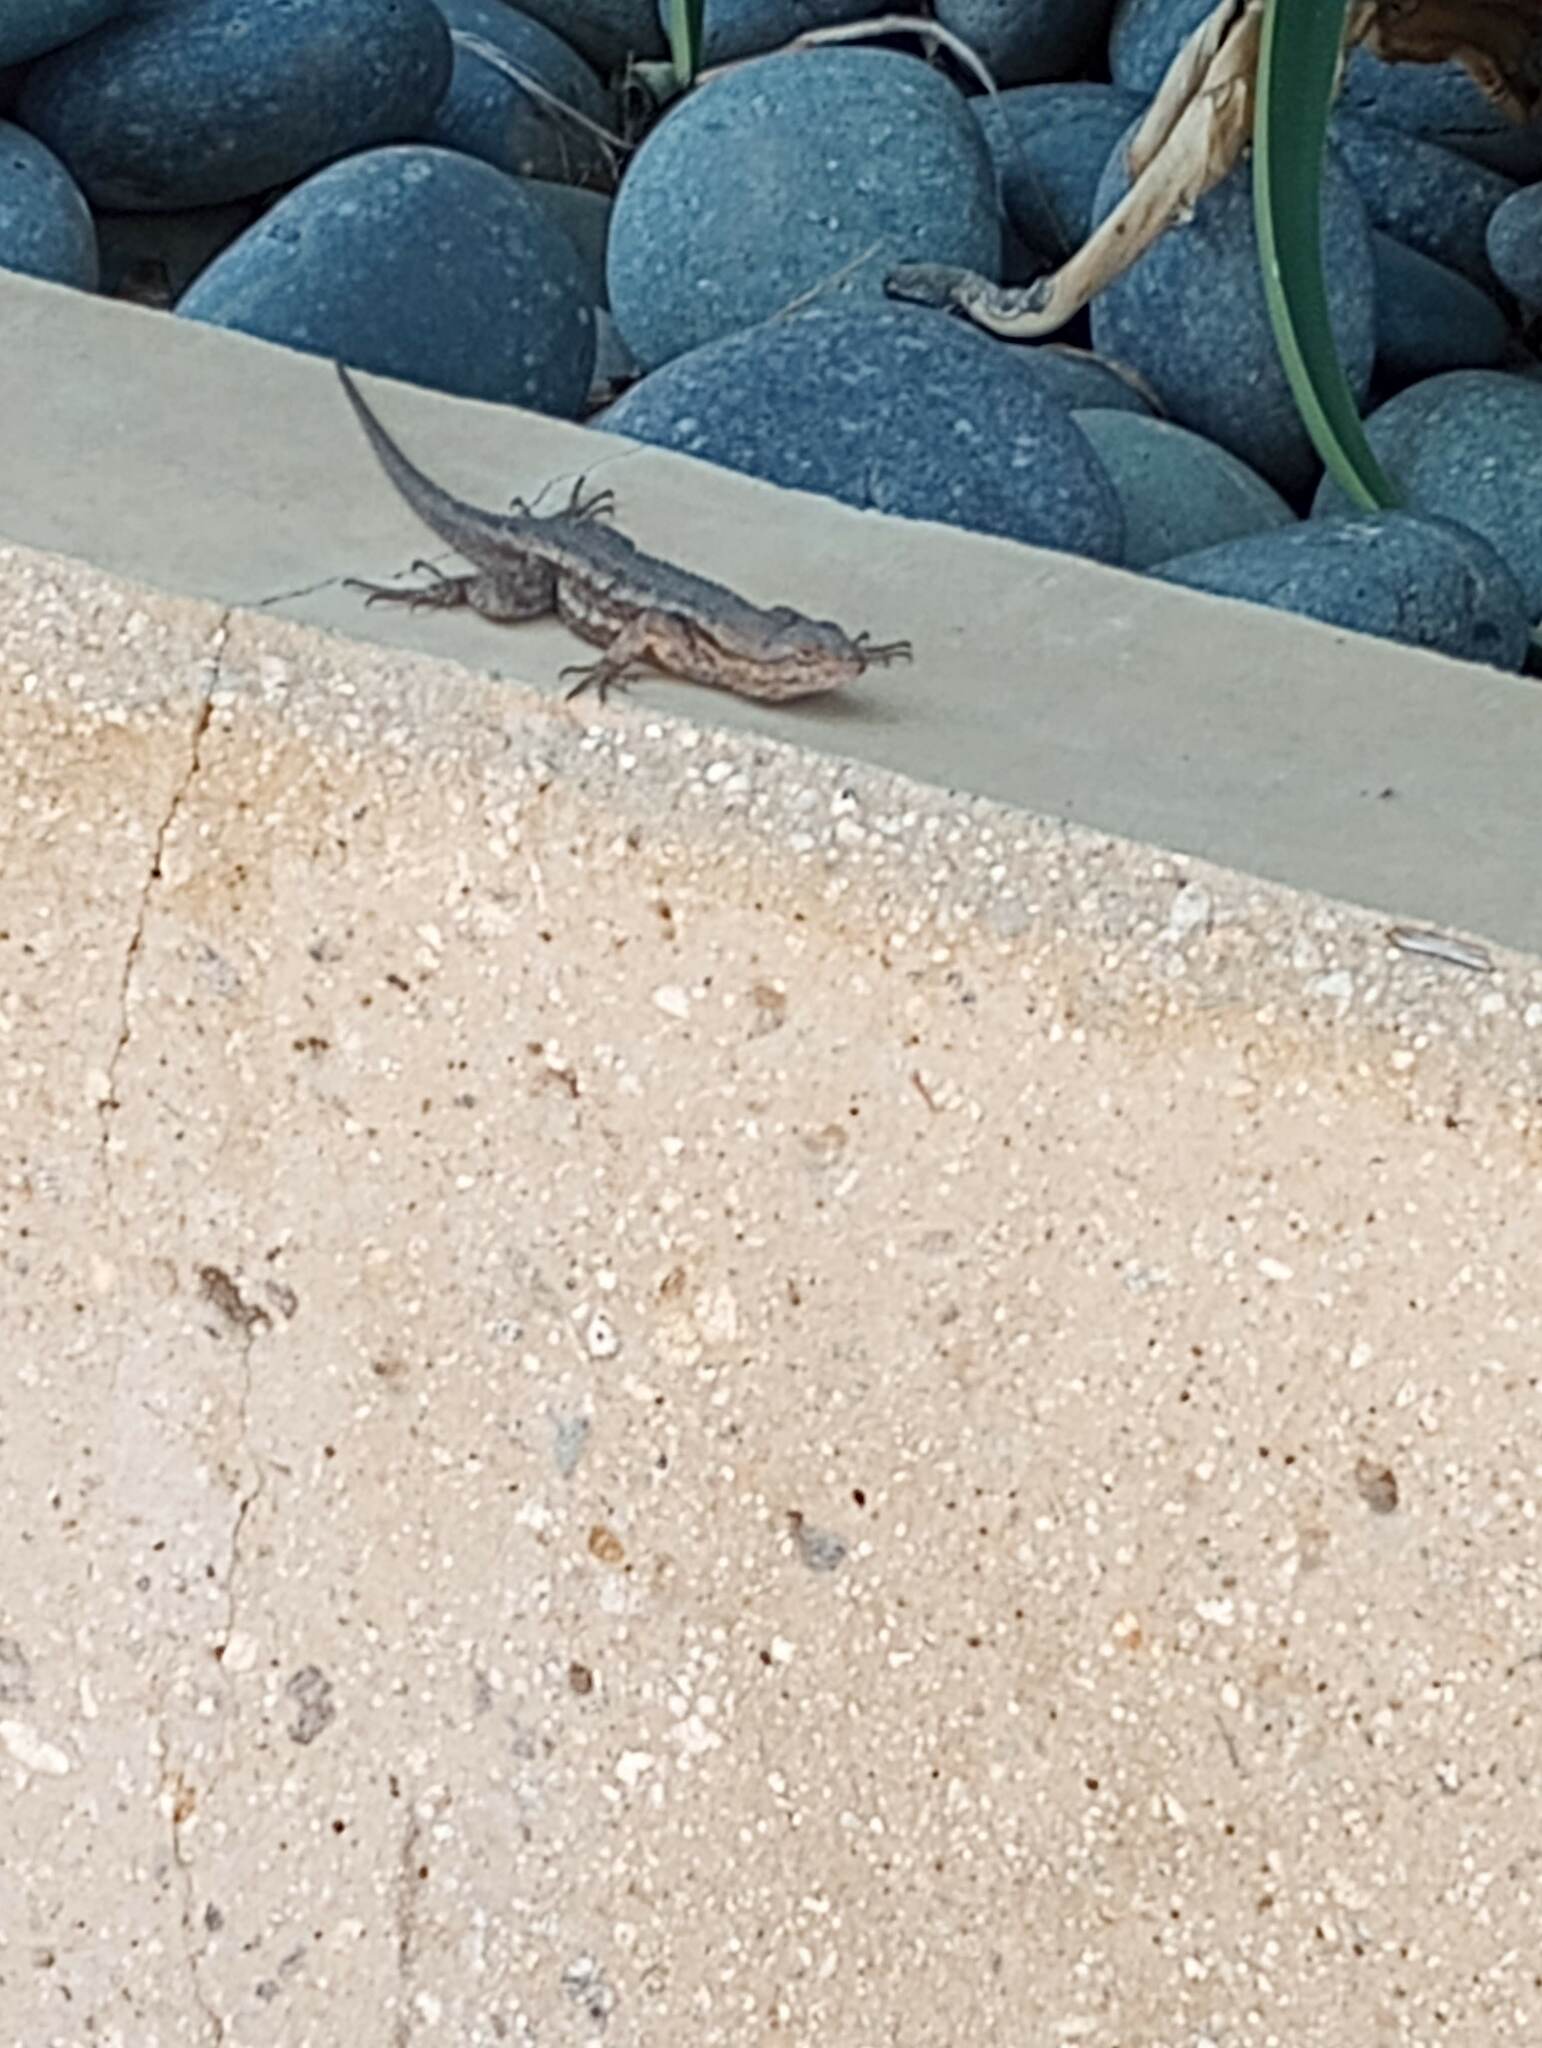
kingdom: Animalia
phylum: Chordata
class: Squamata
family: Phrynosomatidae
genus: Sceloporus
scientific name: Sceloporus occidentalis
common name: Western fence lizard
